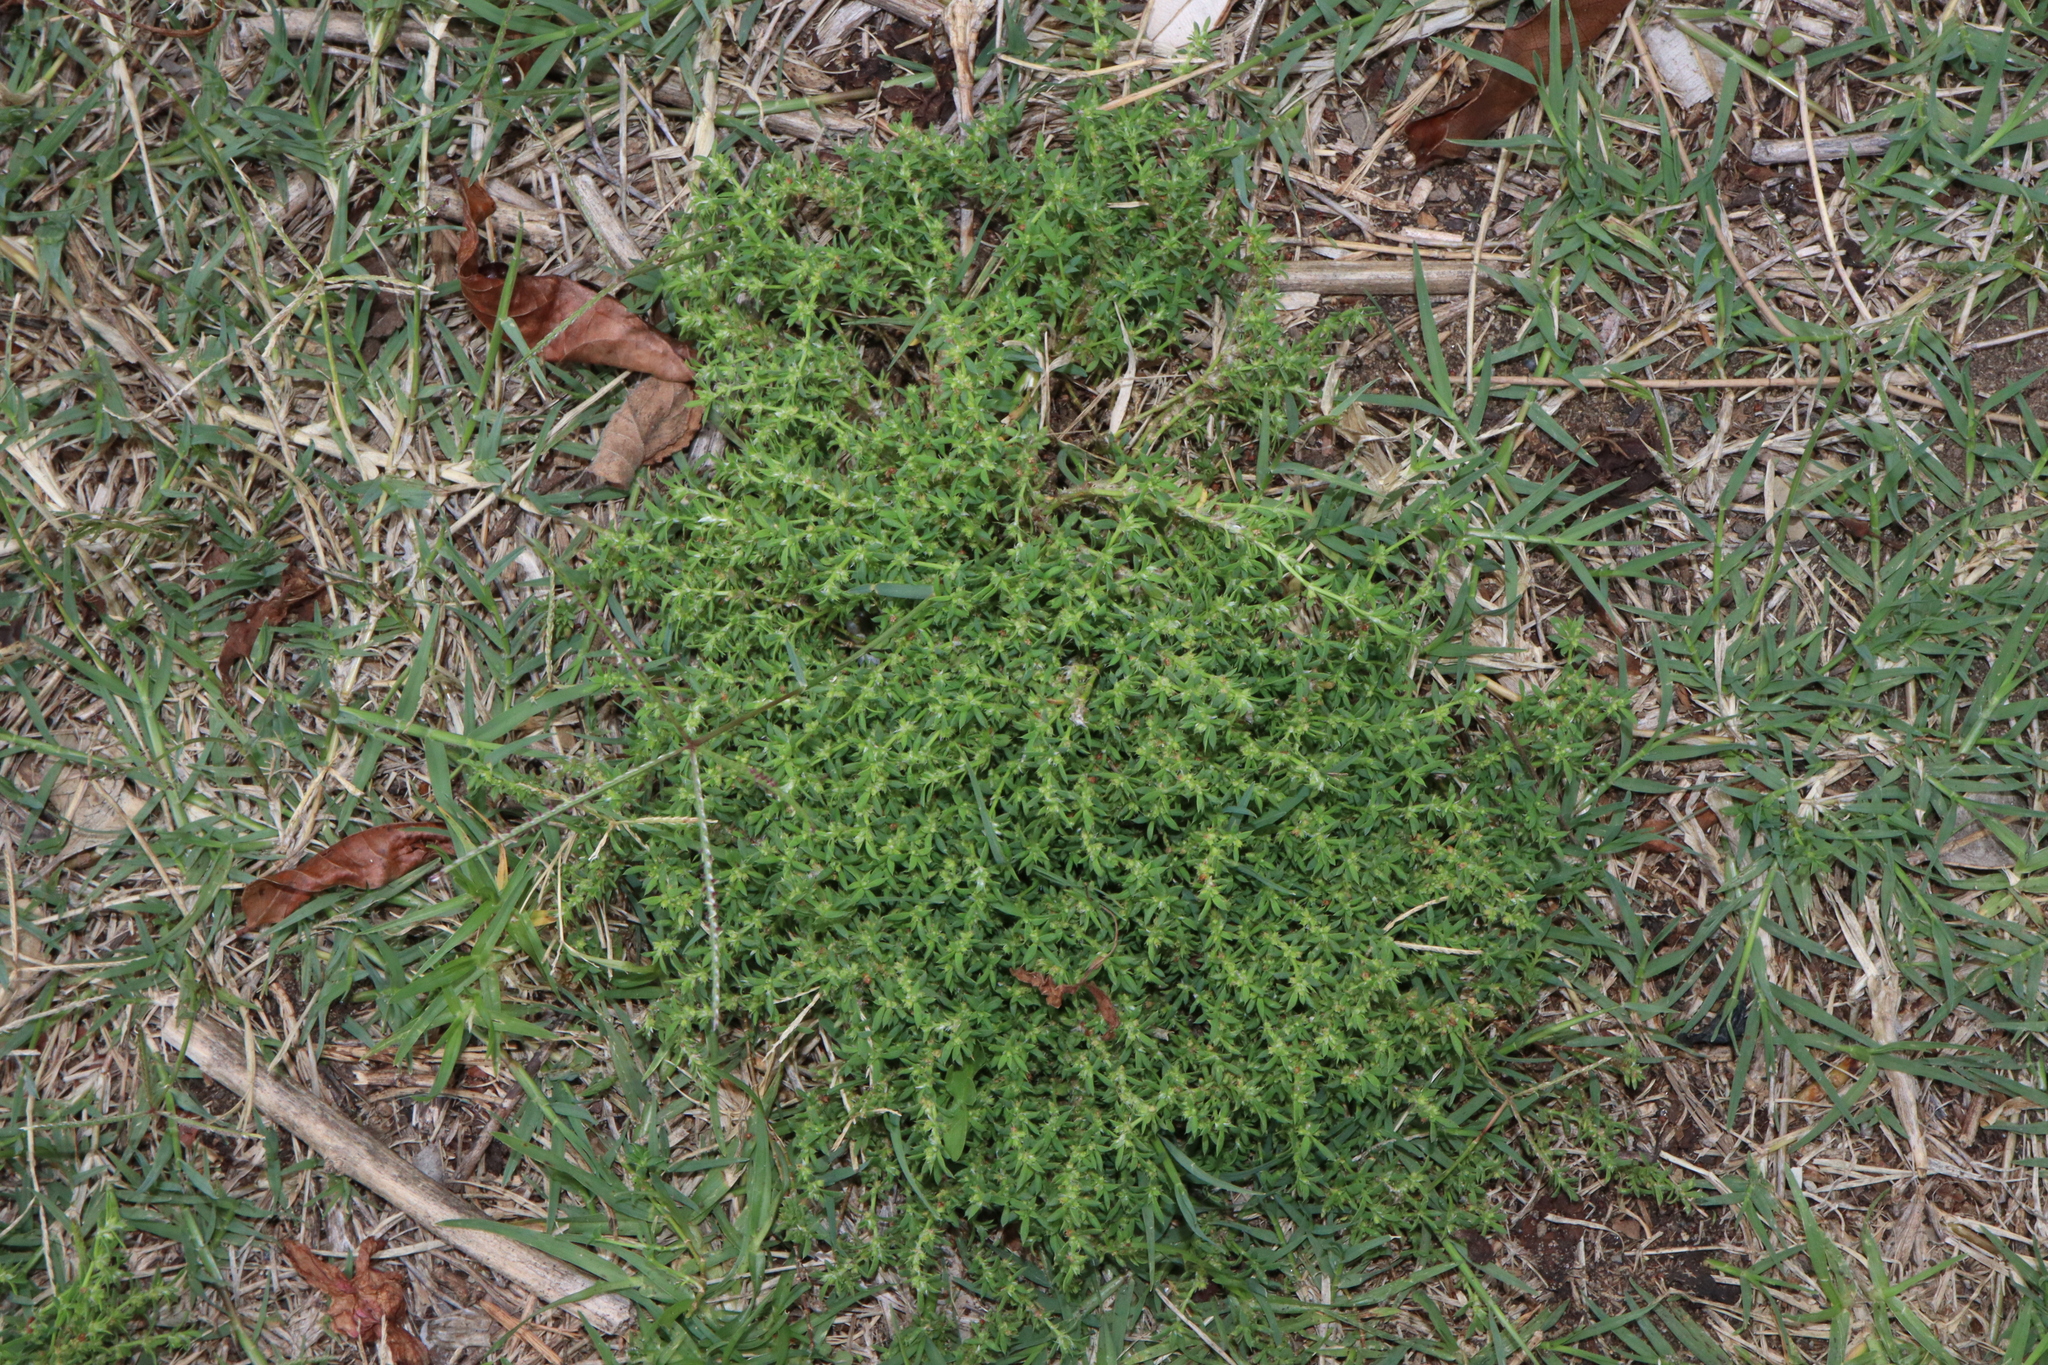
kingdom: Plantae
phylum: Tracheophyta
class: Magnoliopsida
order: Caryophyllales
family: Caryophyllaceae
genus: Paronychia
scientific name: Paronychia brasiliana
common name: Brazilian whitlow
